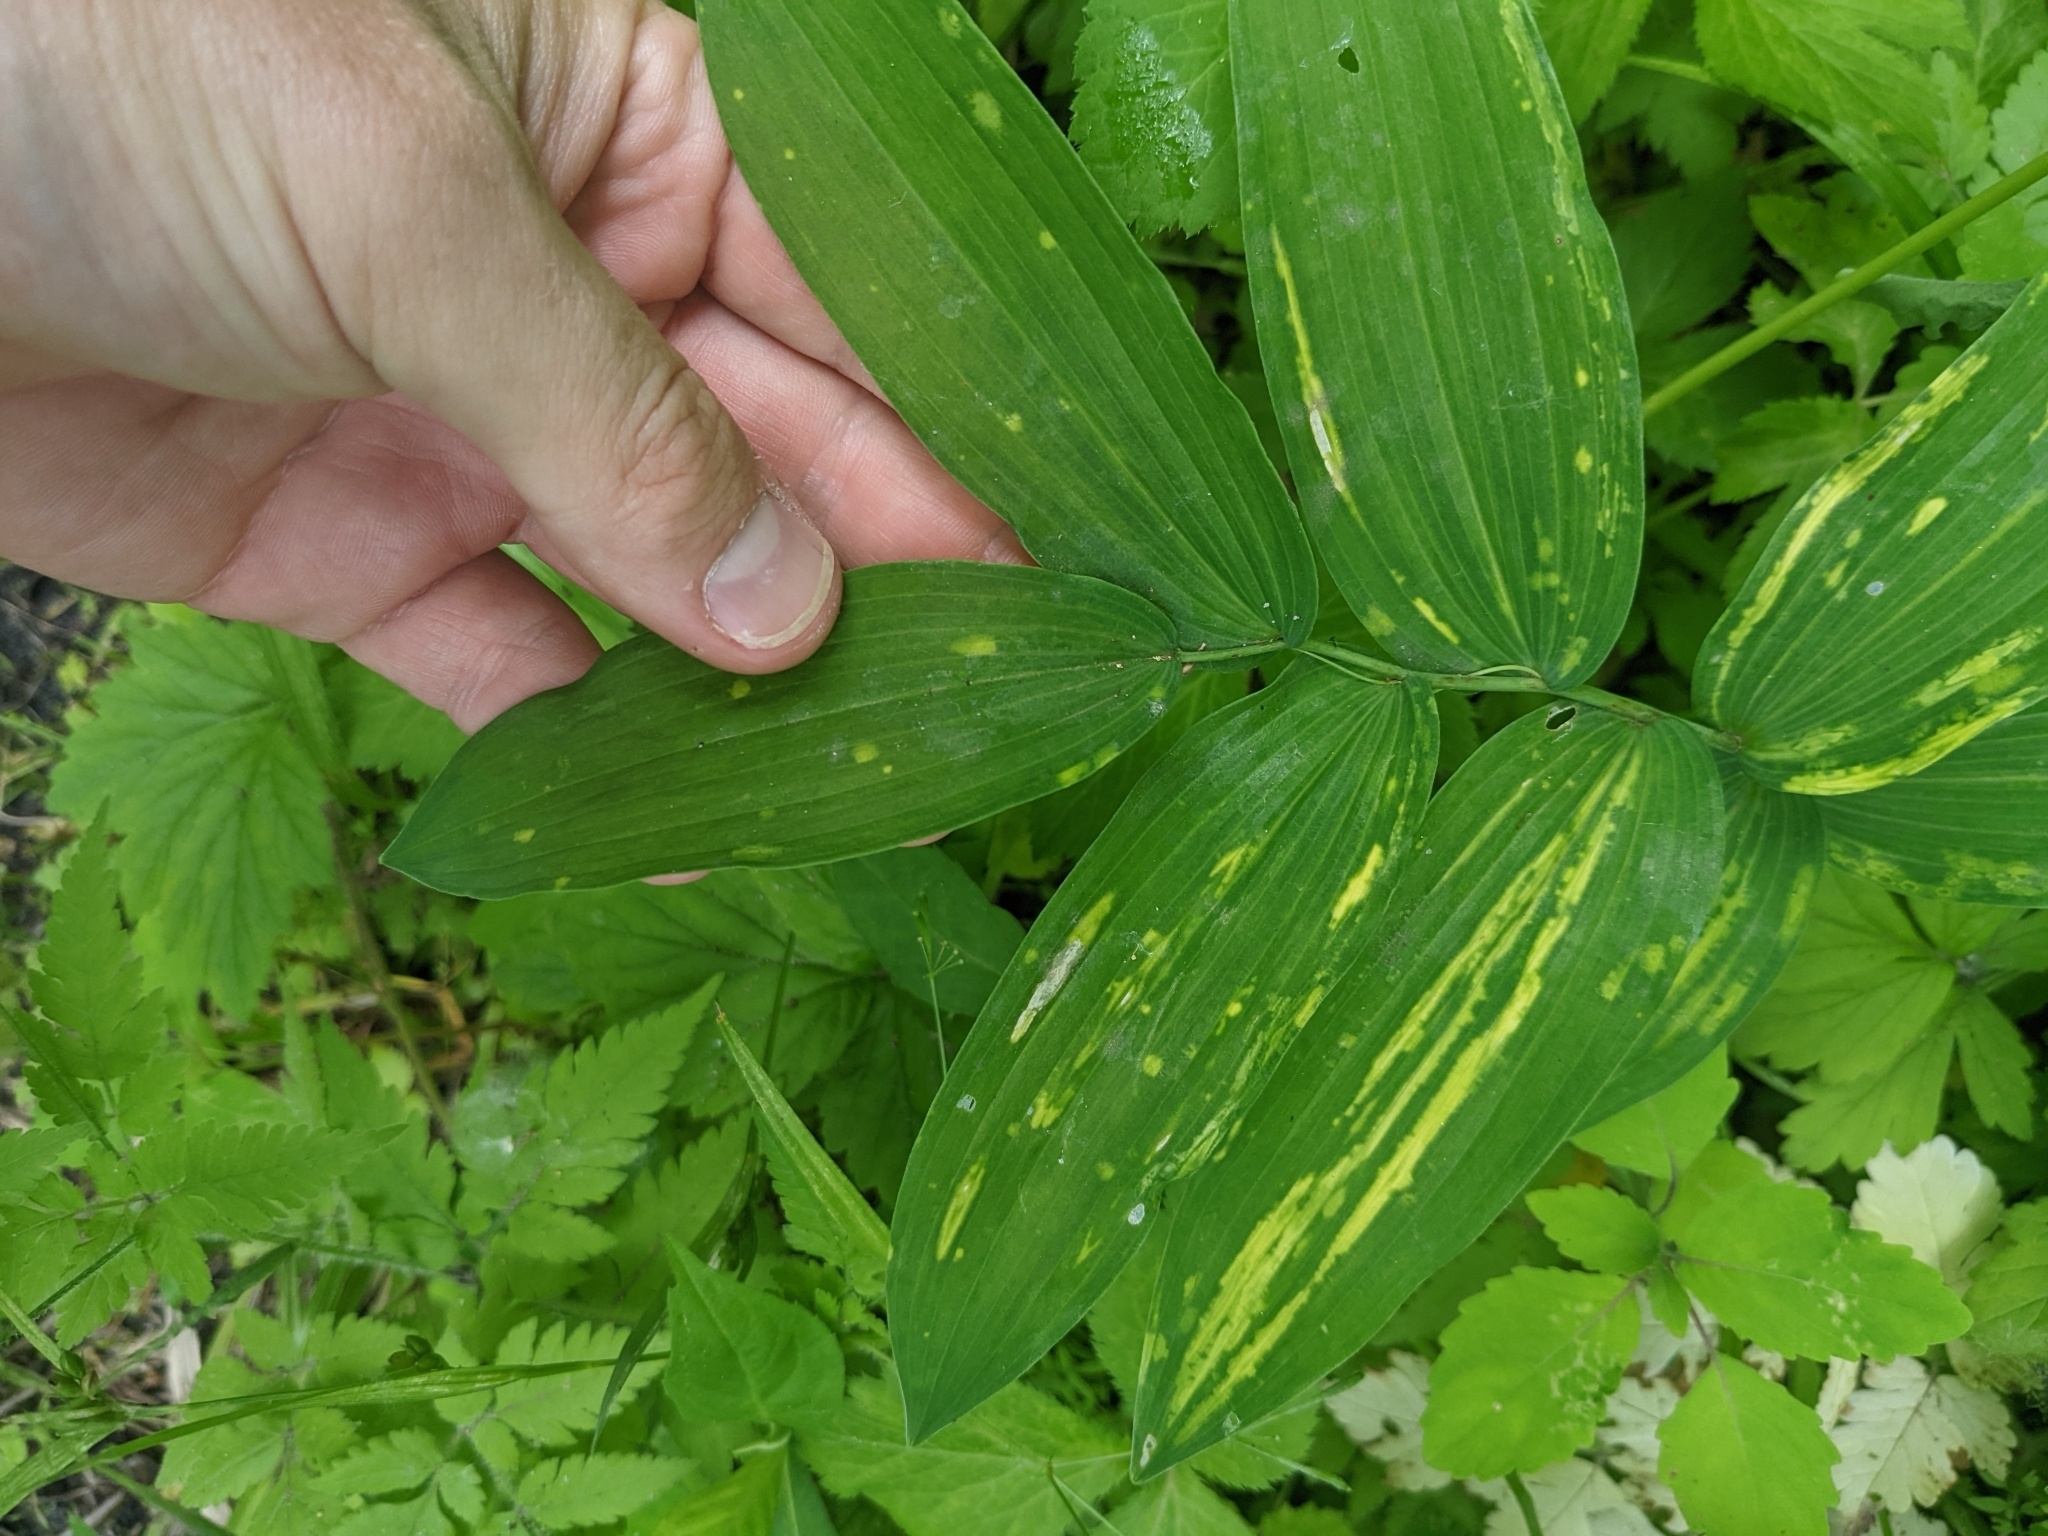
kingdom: Plantae
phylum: Tracheophyta
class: Liliopsida
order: Asparagales
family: Asparagaceae
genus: Polygonatum
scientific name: Polygonatum biflorum
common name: American solomon's-seal
